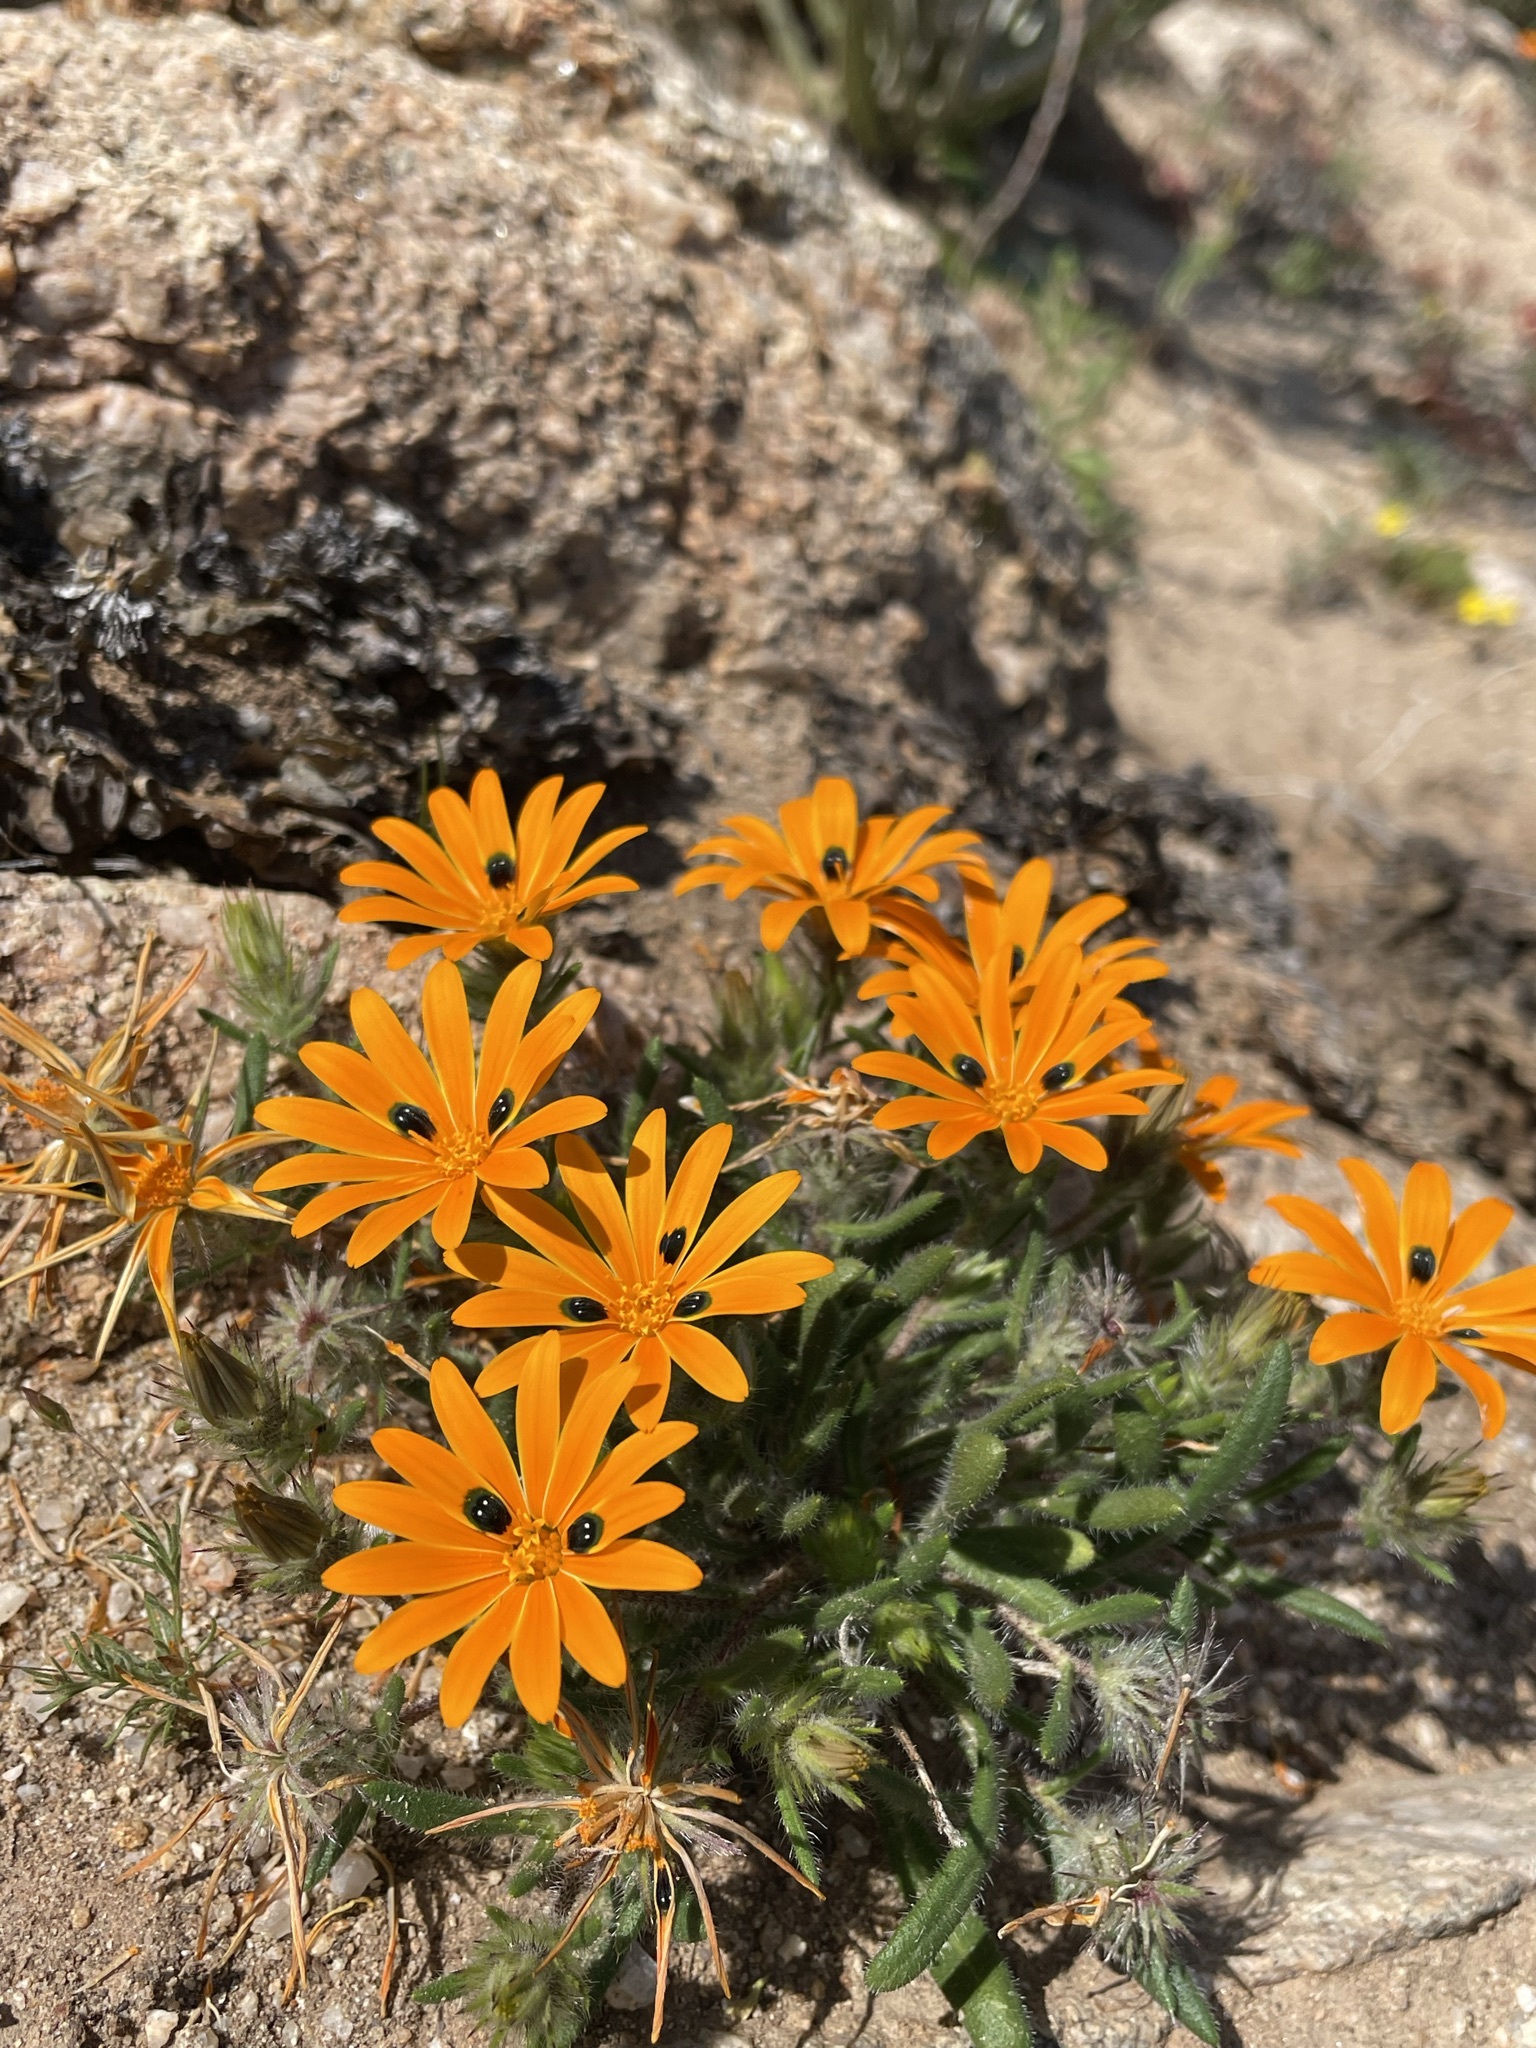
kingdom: Plantae
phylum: Tracheophyta
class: Magnoliopsida
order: Asterales
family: Asteraceae
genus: Gorteria
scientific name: Gorteria diffusa
